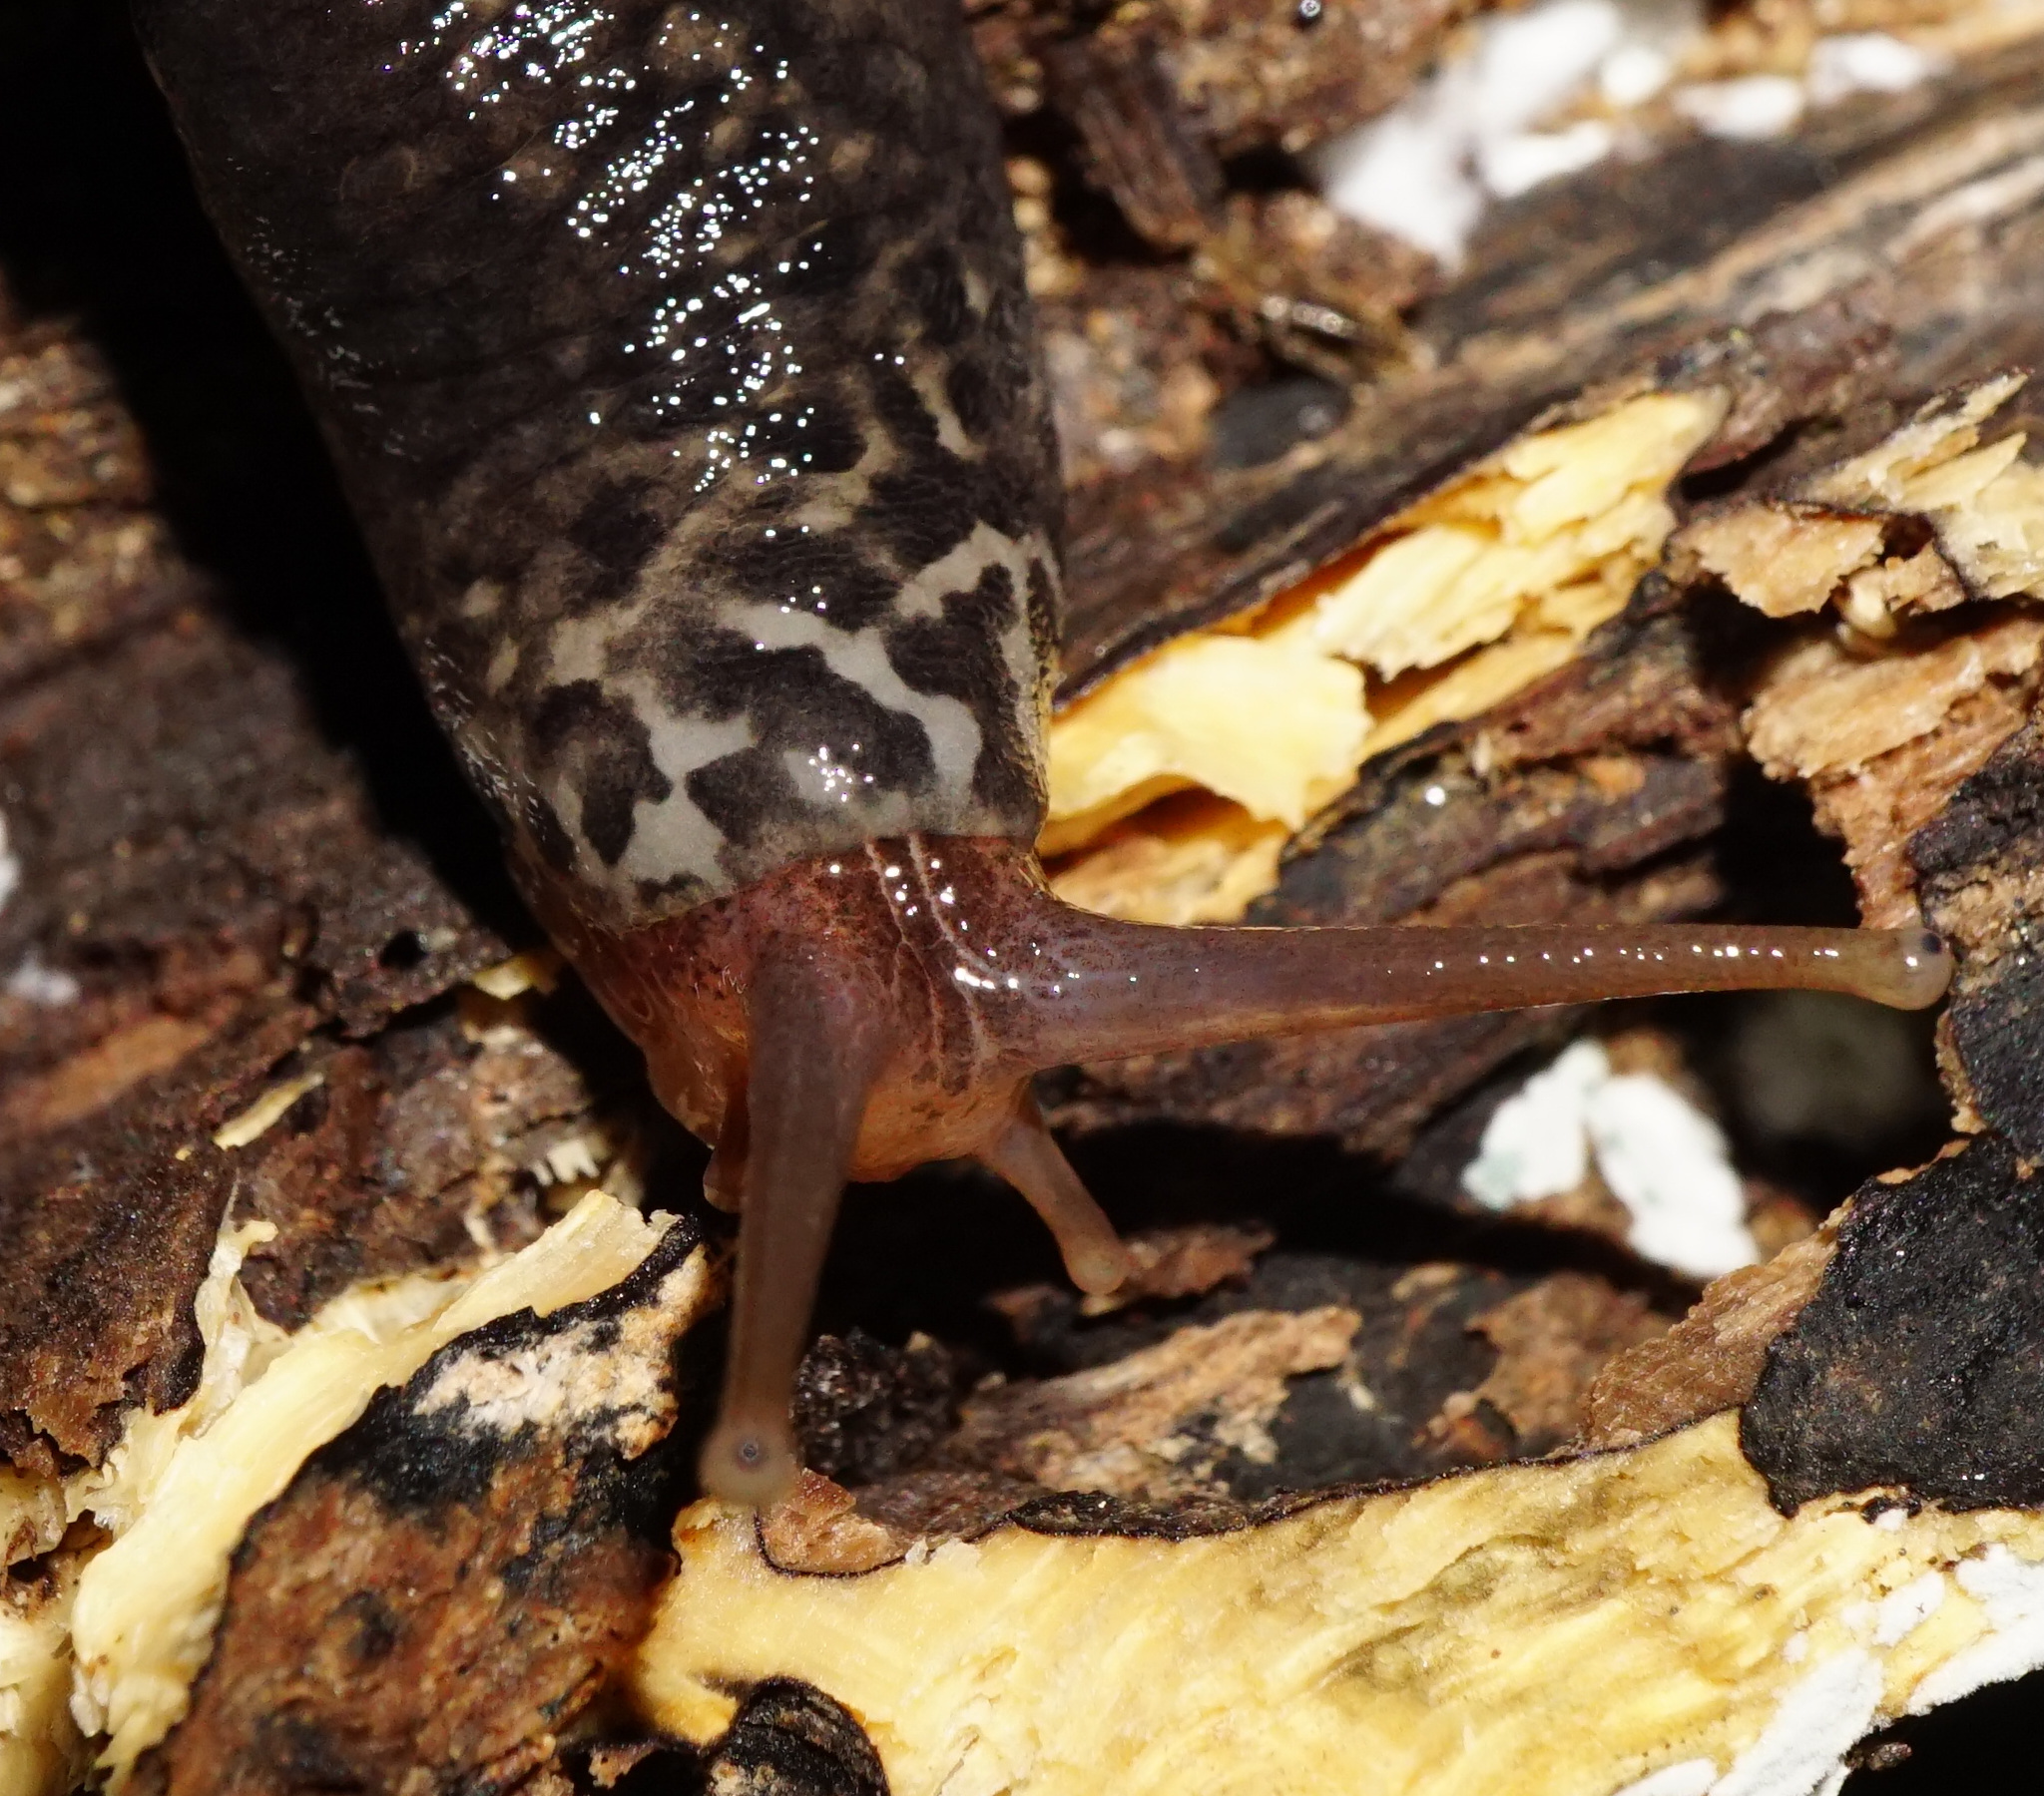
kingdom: Animalia
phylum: Mollusca
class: Gastropoda
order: Stylommatophora
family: Limacidae
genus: Limax
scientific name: Limax maximus
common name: Great grey slug
